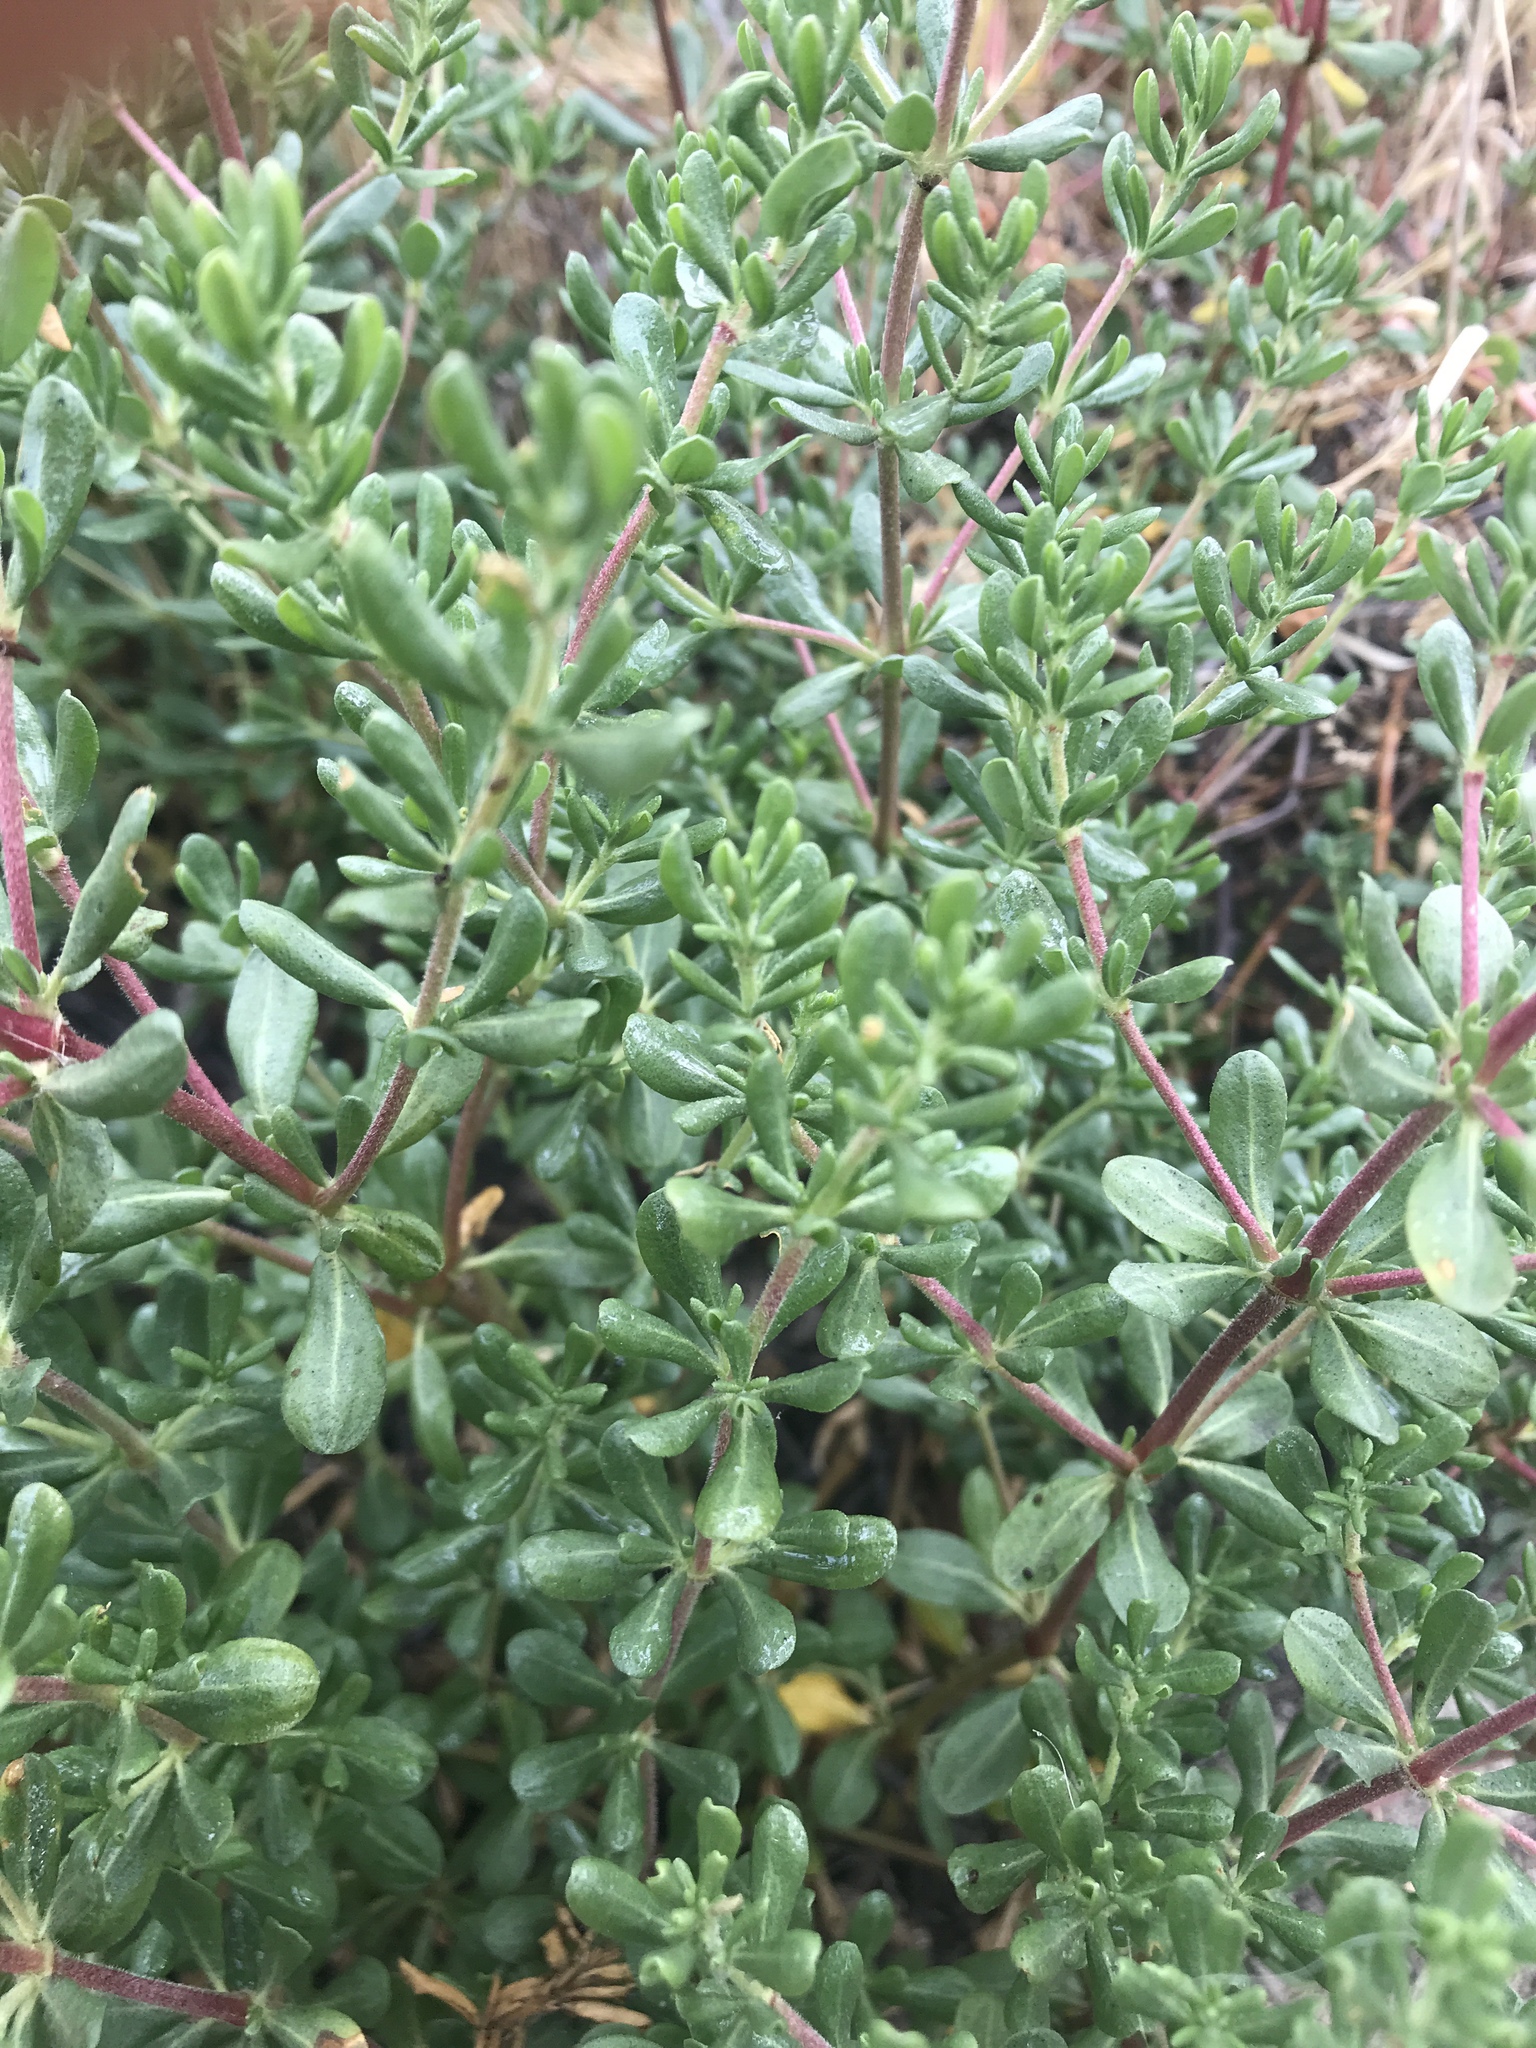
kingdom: Plantae
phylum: Tracheophyta
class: Magnoliopsida
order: Caryophyllales
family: Frankeniaceae
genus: Frankenia
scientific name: Frankenia salina
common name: Alkali seaheath
